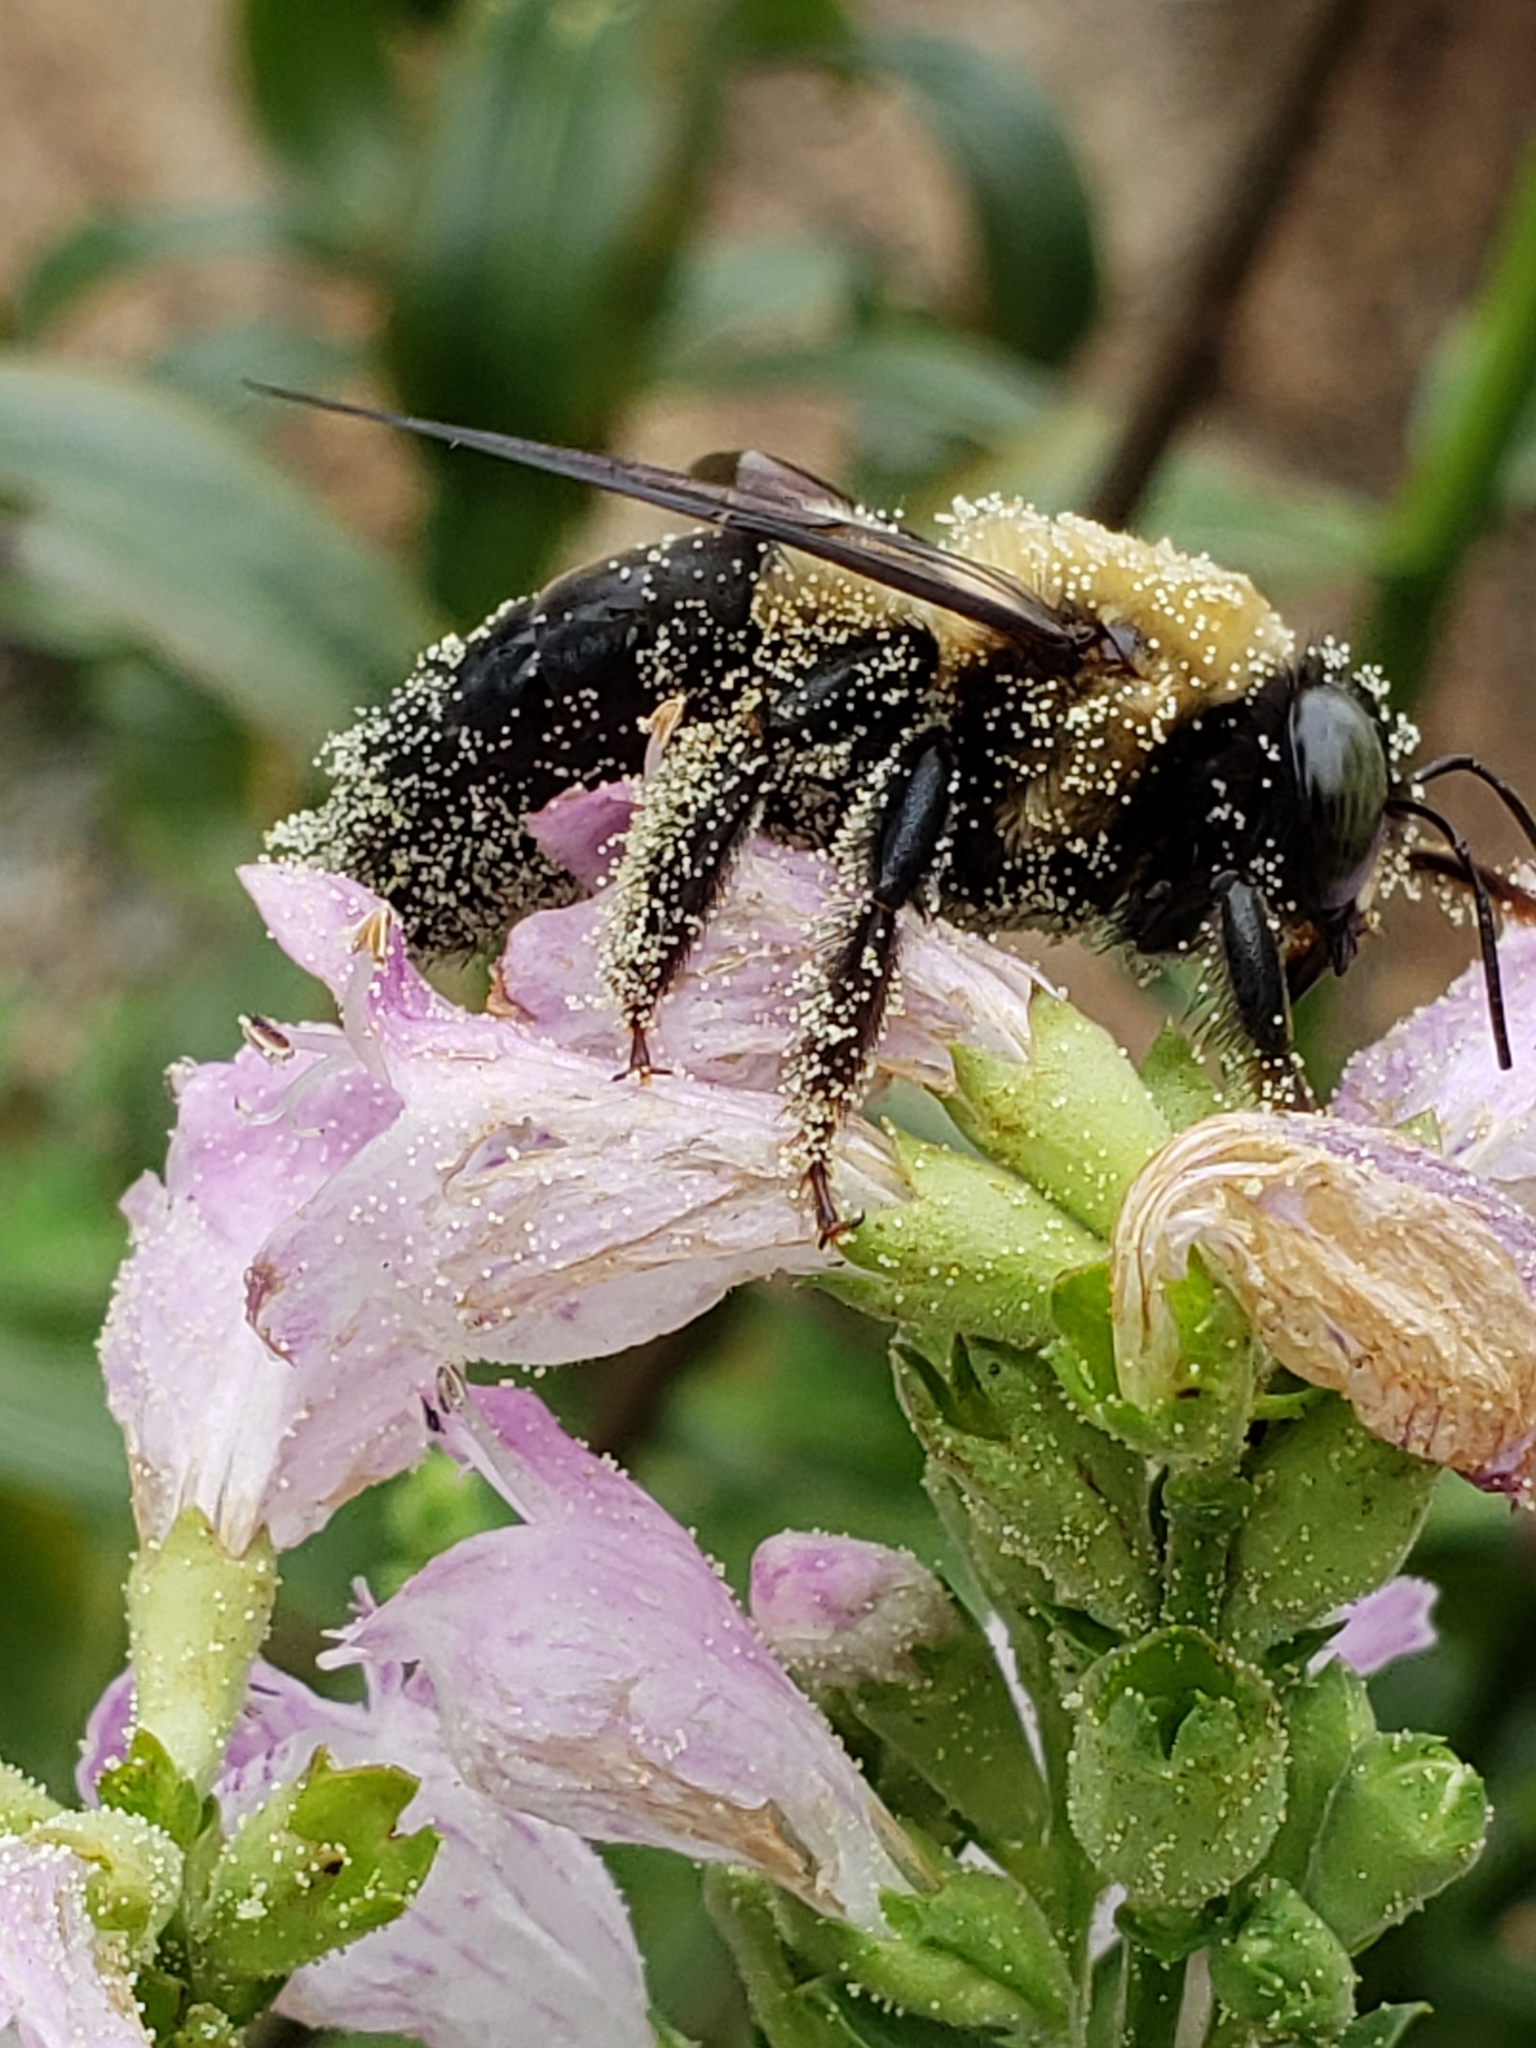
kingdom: Animalia
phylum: Arthropoda
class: Insecta
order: Hymenoptera
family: Apidae
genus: Xylocopa
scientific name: Xylocopa virginica
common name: Carpenter bee
